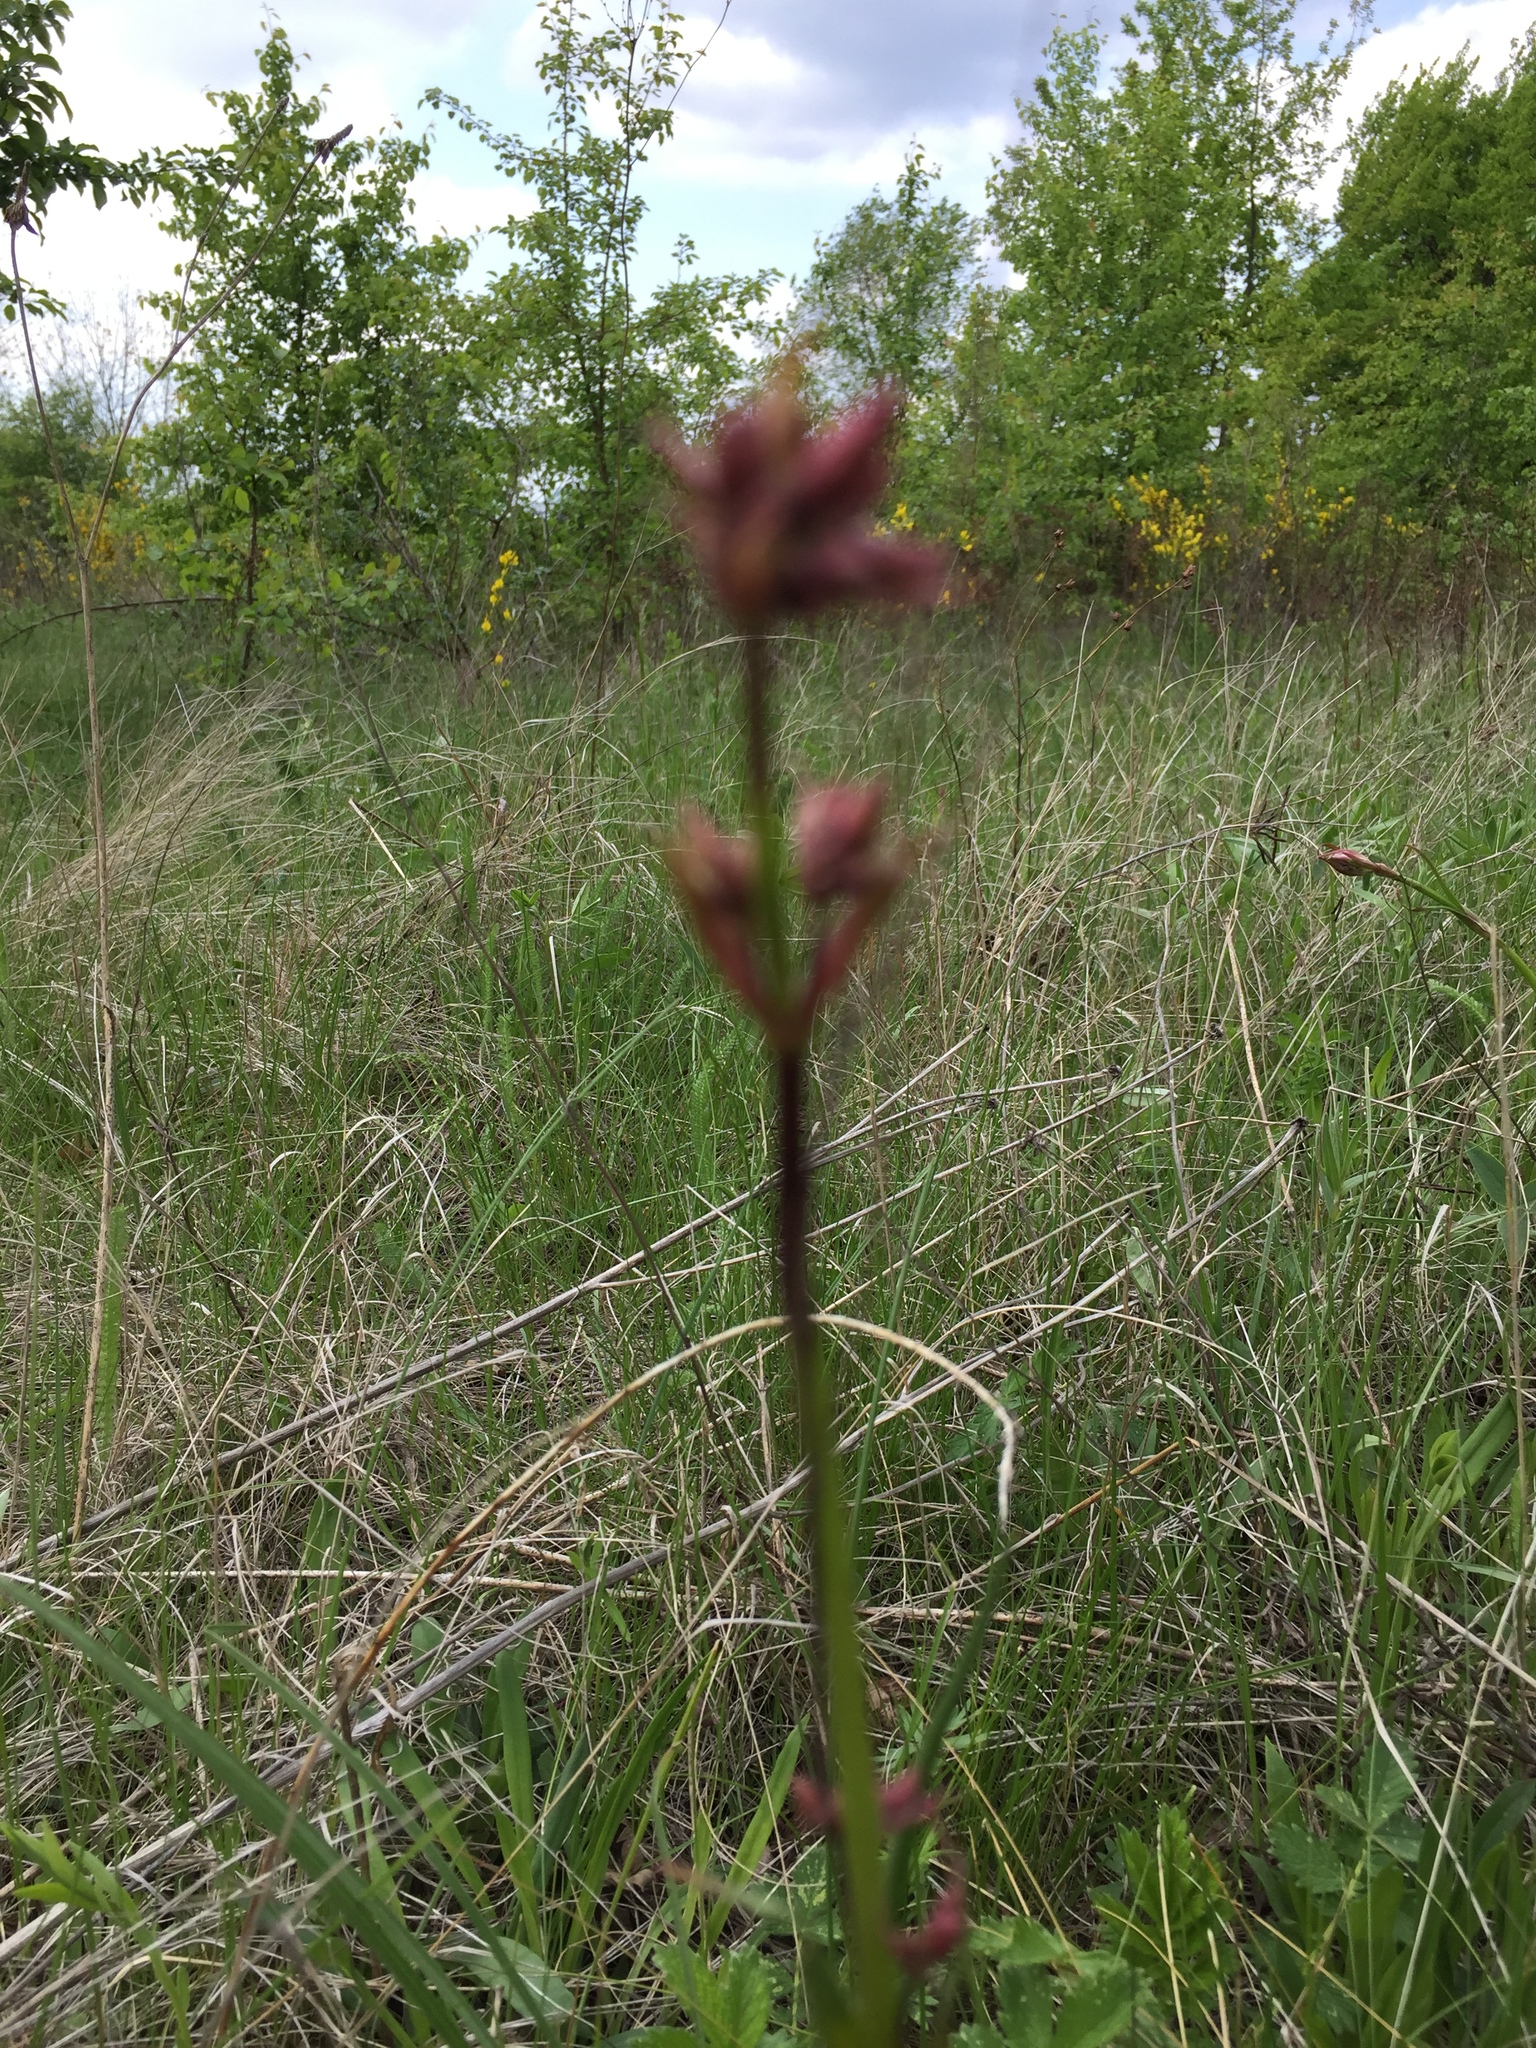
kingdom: Plantae
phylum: Tracheophyta
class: Magnoliopsida
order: Caryophyllales
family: Caryophyllaceae
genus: Viscaria
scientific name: Viscaria vulgaris
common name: Clammy campion
